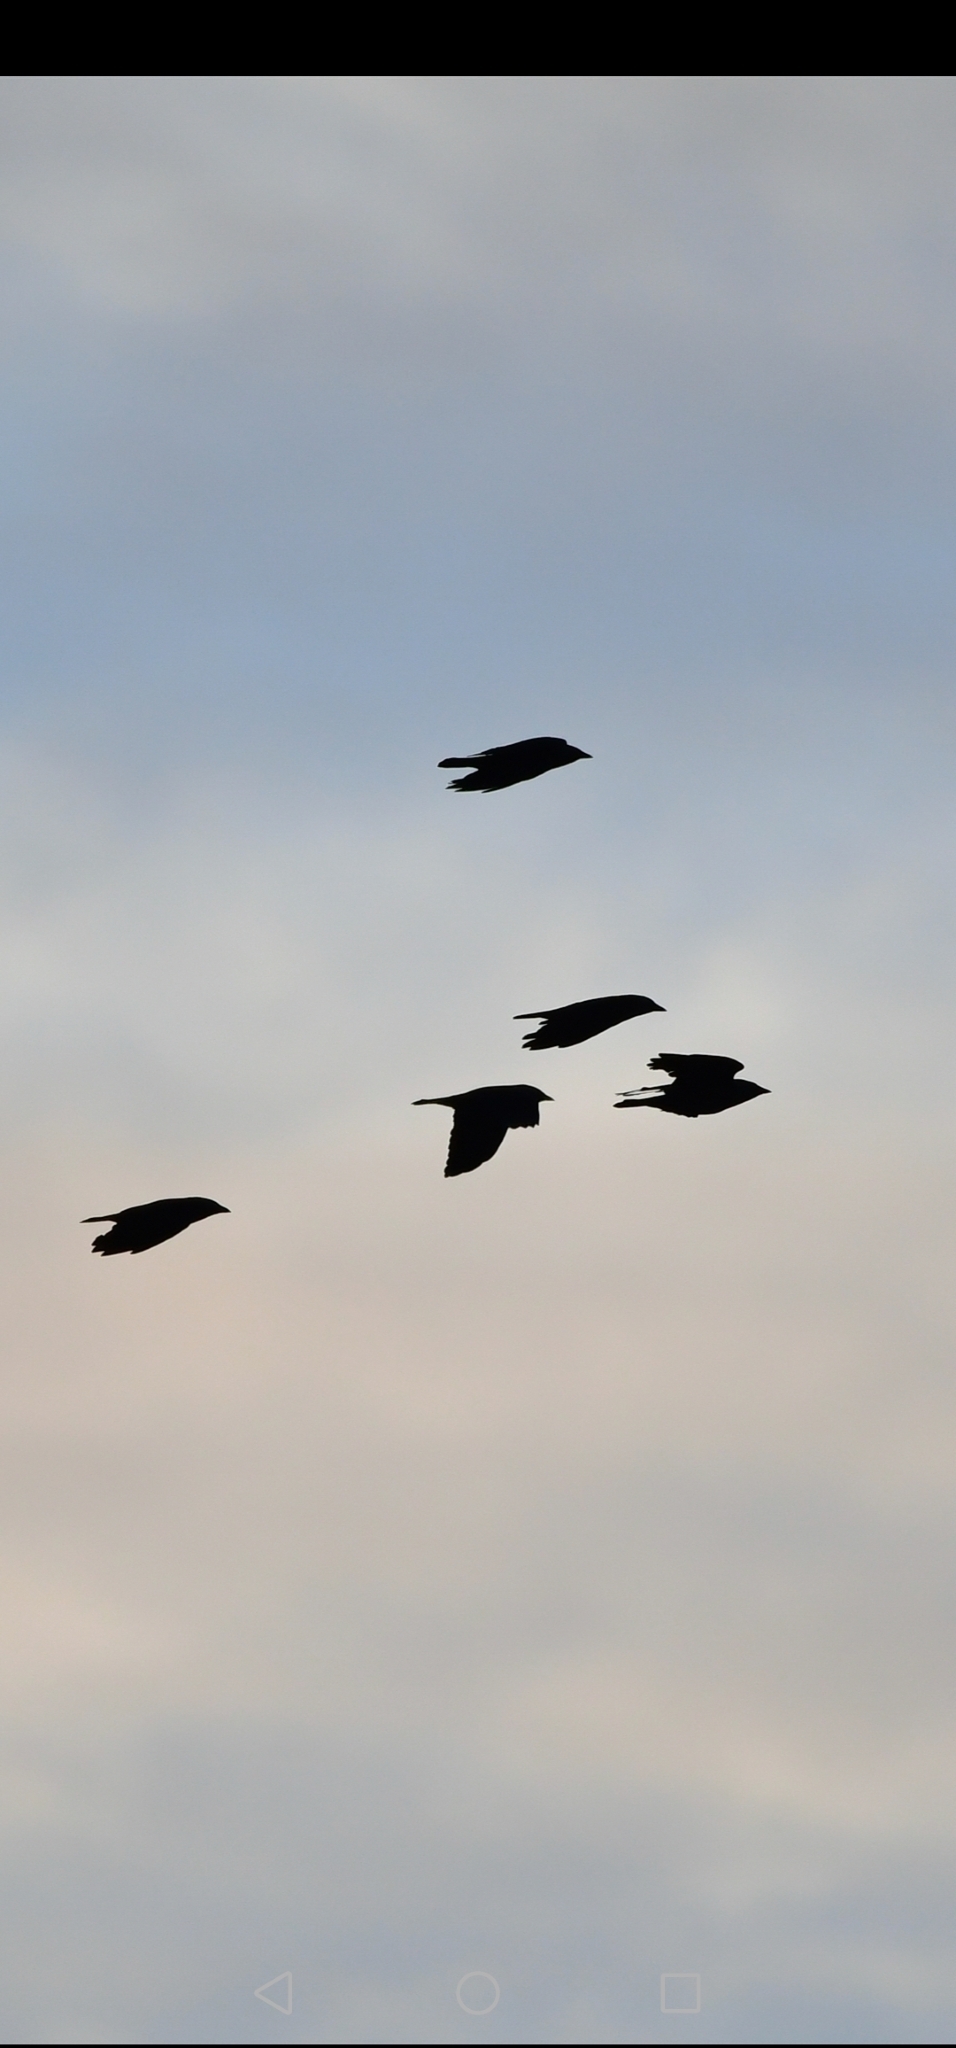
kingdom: Animalia
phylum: Chordata
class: Aves
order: Passeriformes
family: Corvidae
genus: Coloeus
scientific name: Coloeus monedula
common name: Western jackdaw
